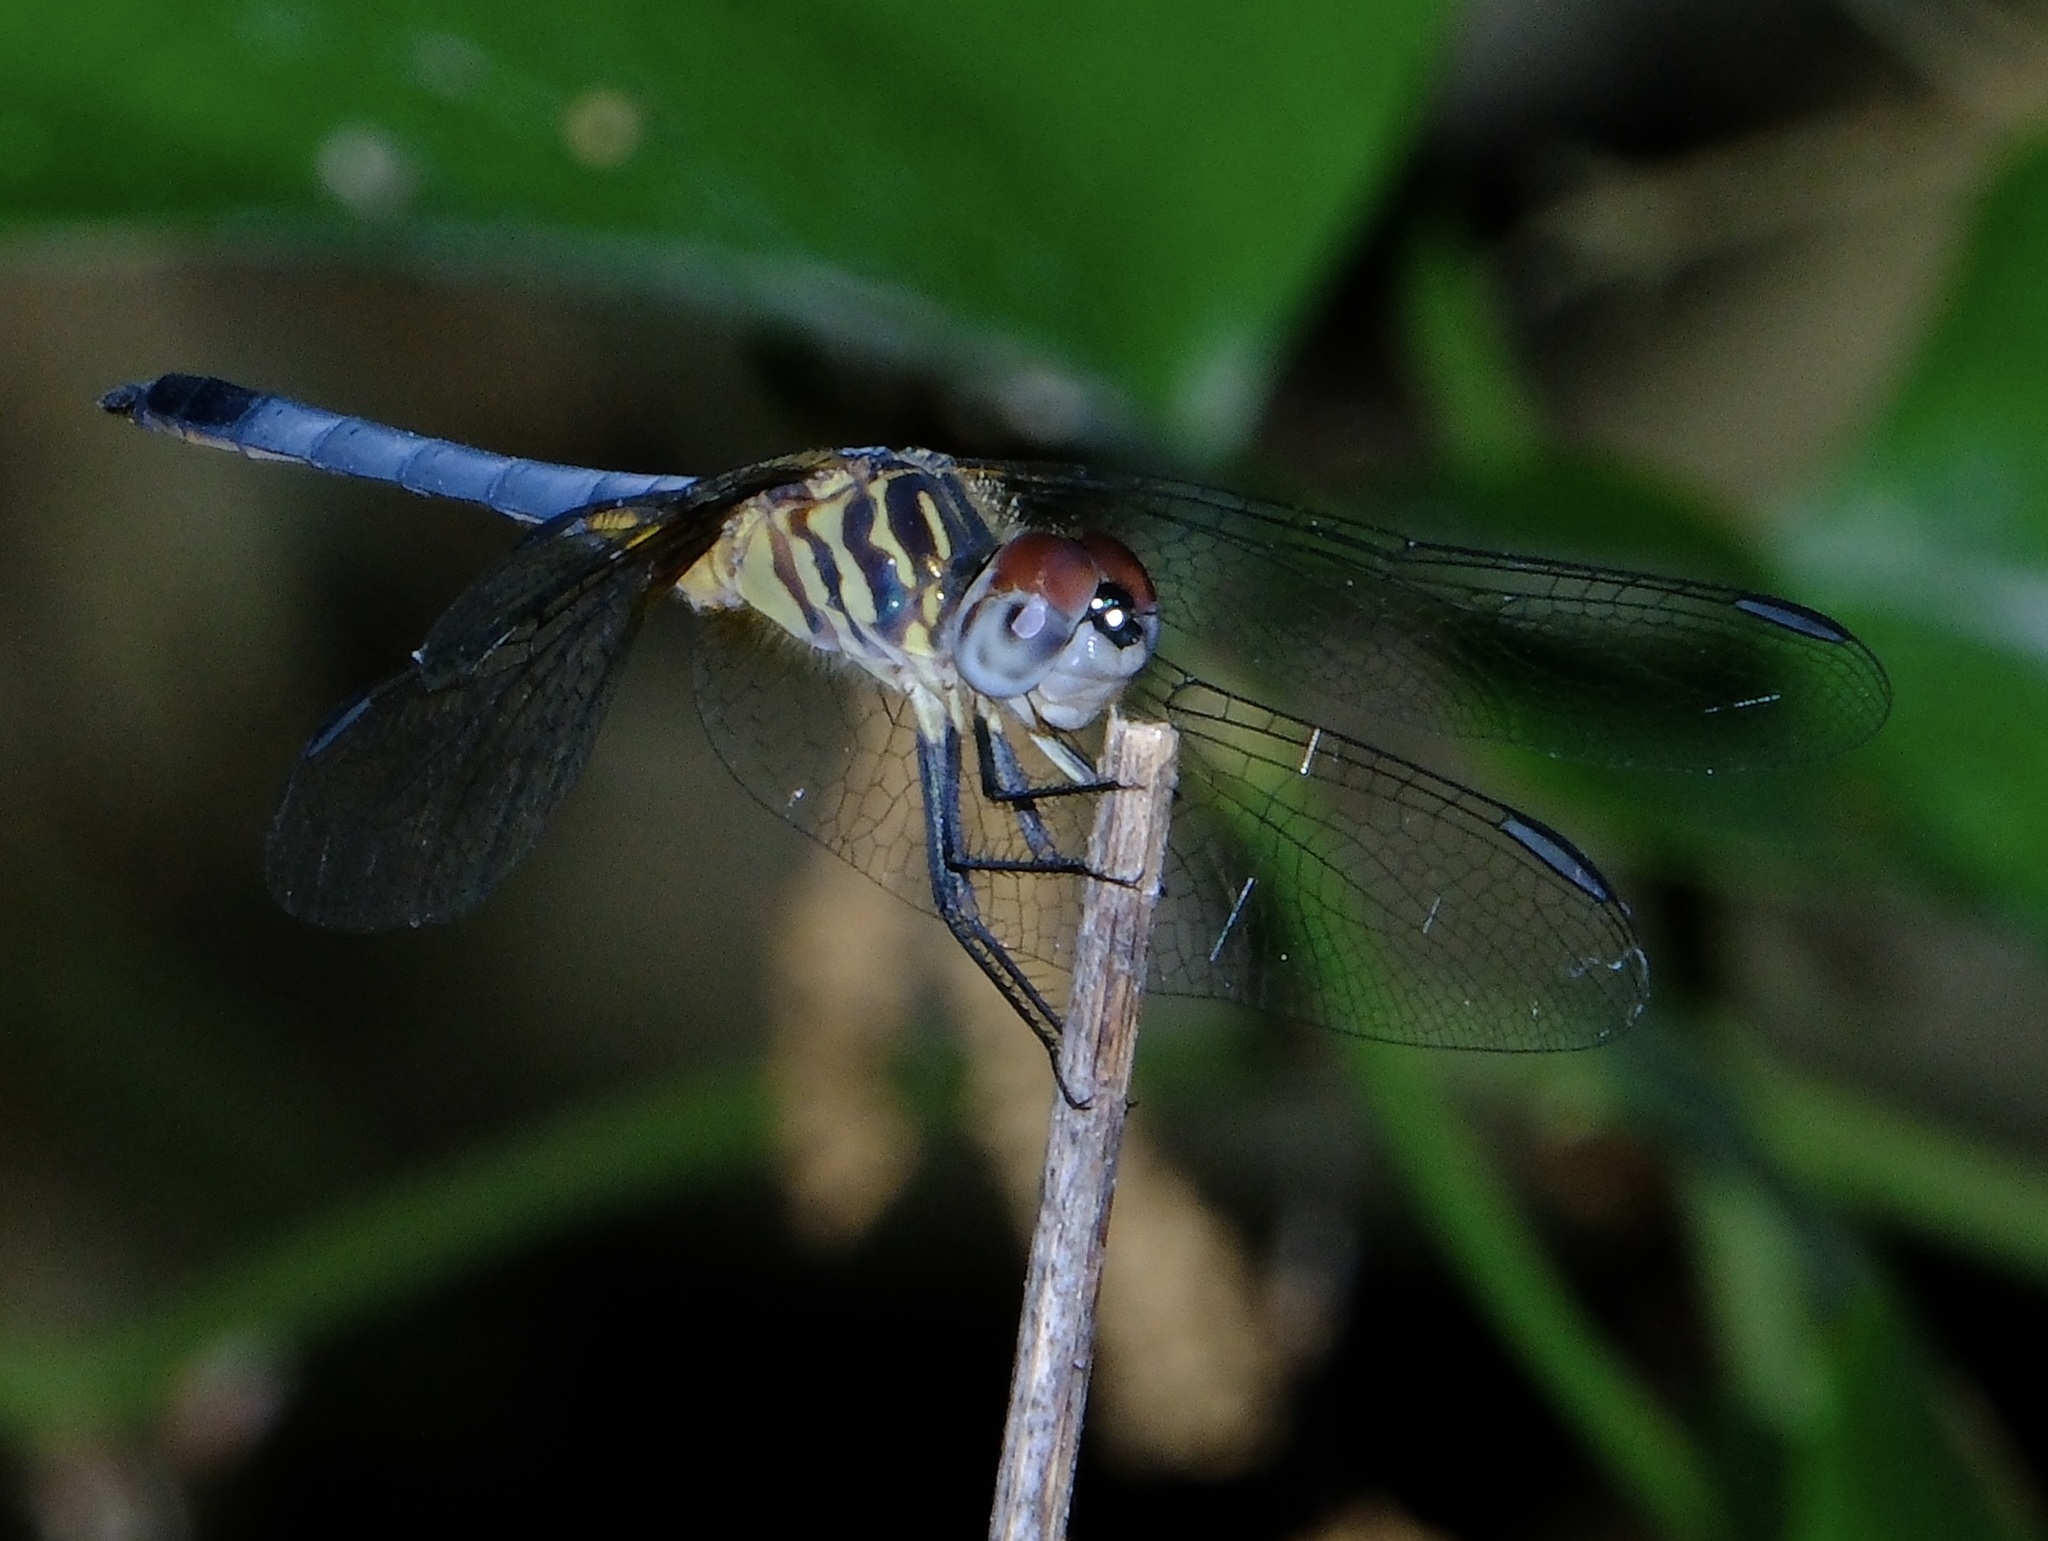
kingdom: Animalia
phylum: Arthropoda
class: Insecta
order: Odonata
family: Libellulidae
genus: Pachydiplax
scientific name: Pachydiplax longipennis
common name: Blue dasher
